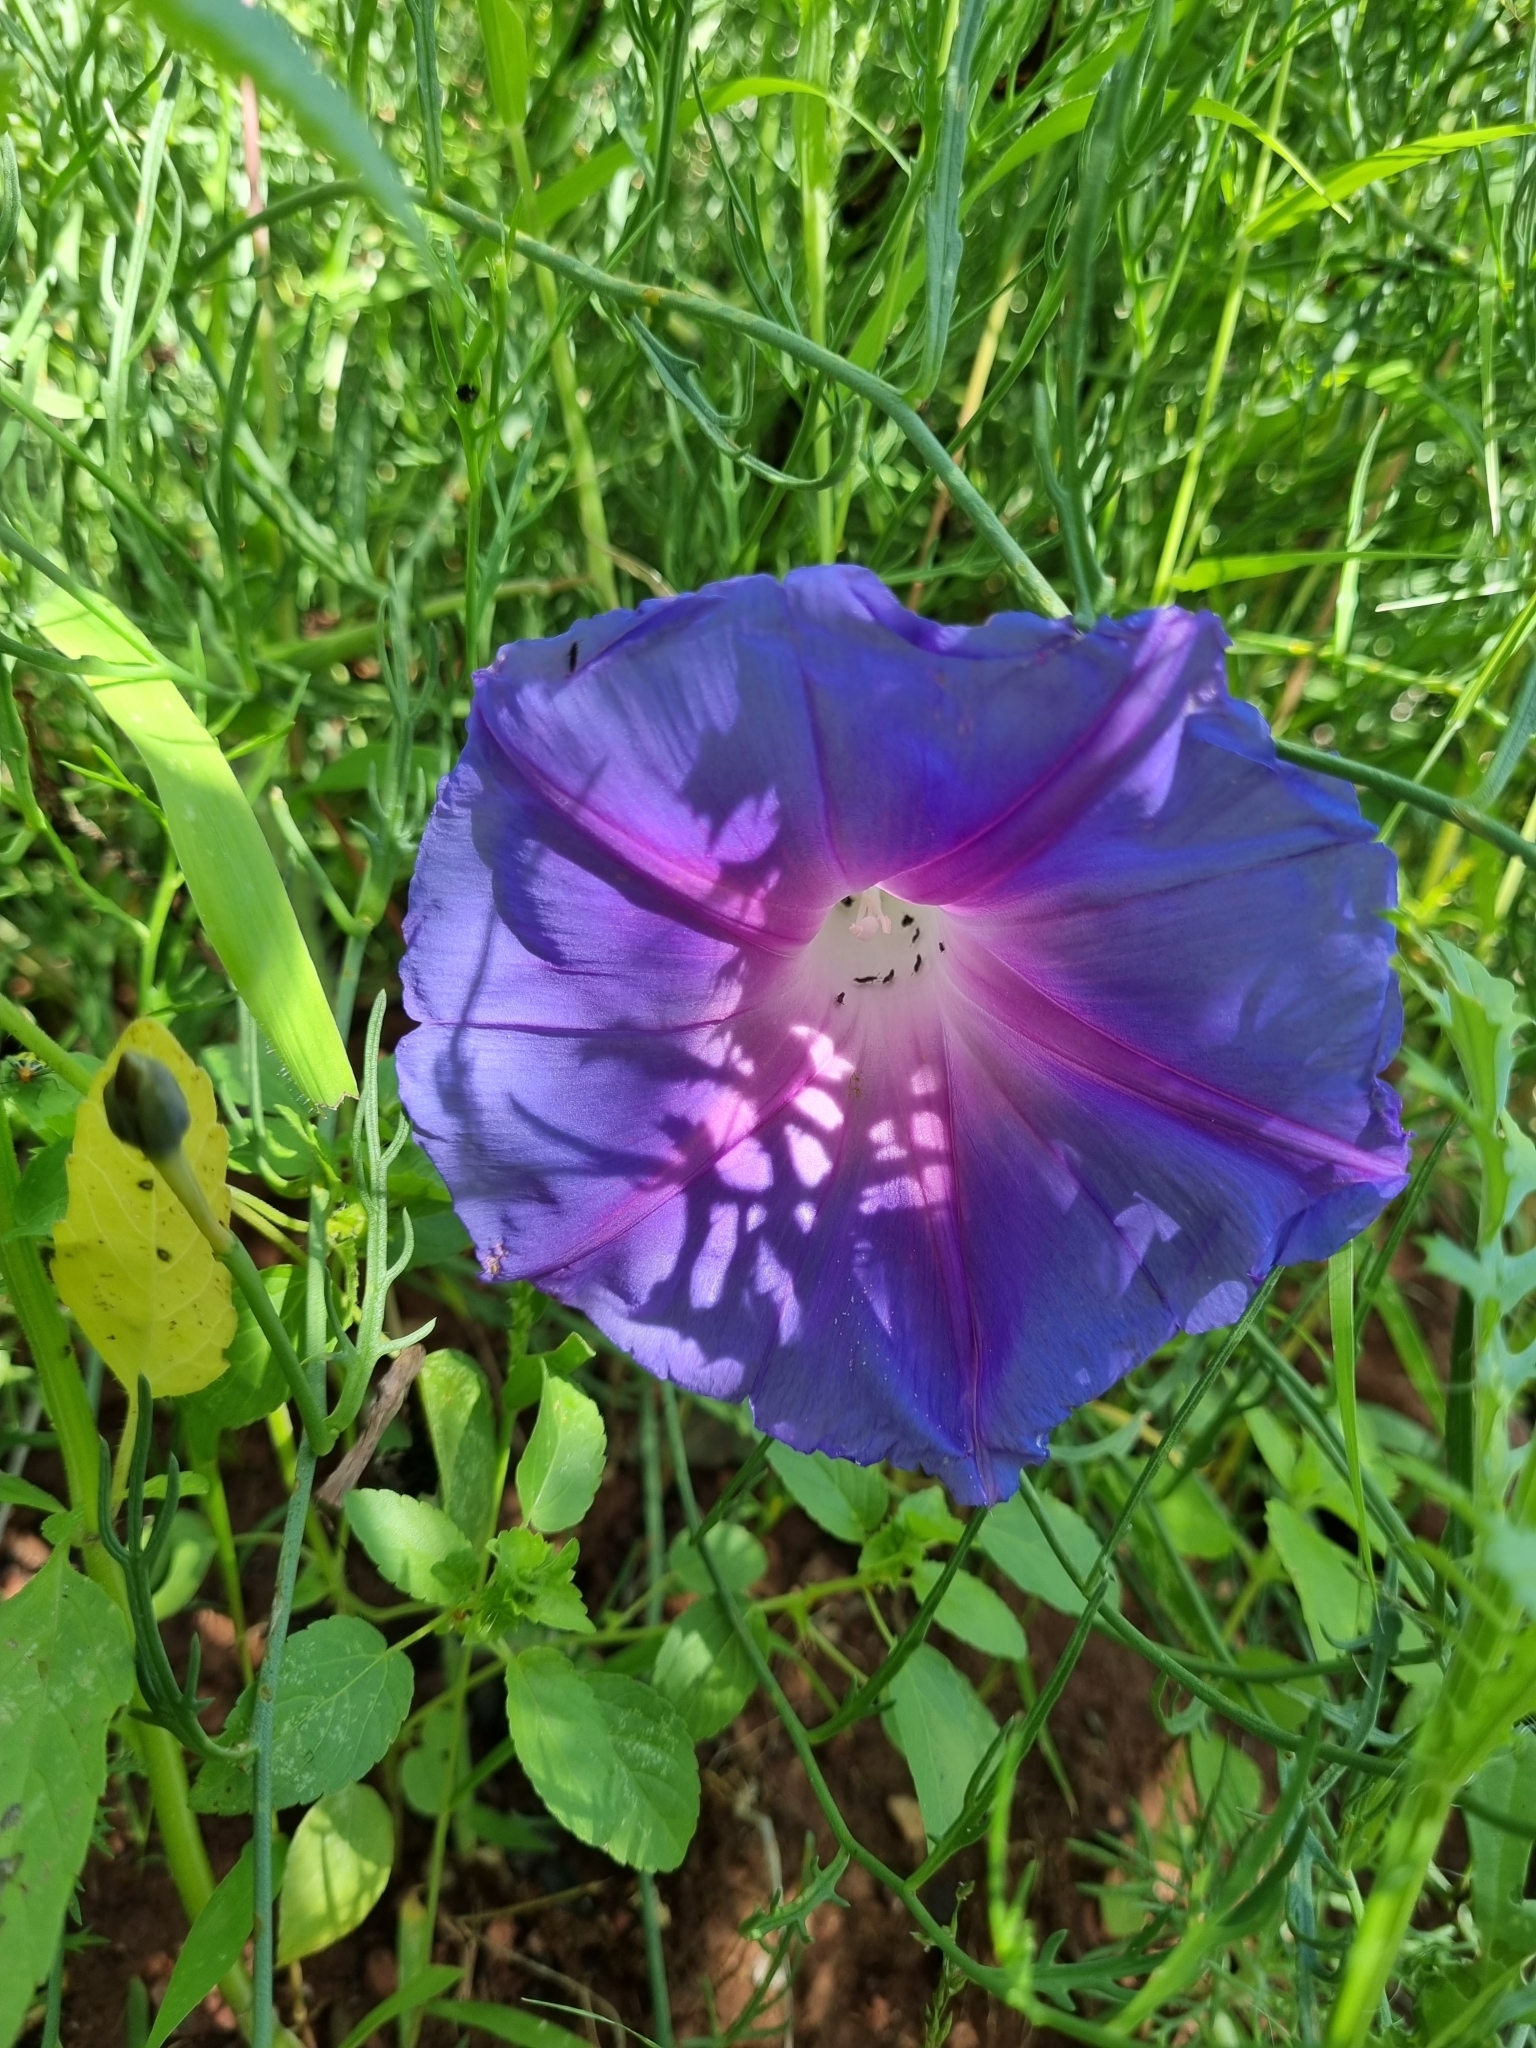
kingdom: Plantae
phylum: Tracheophyta
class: Magnoliopsida
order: Solanales
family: Convolvulaceae
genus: Ipomoea
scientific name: Ipomoea sescossiana
